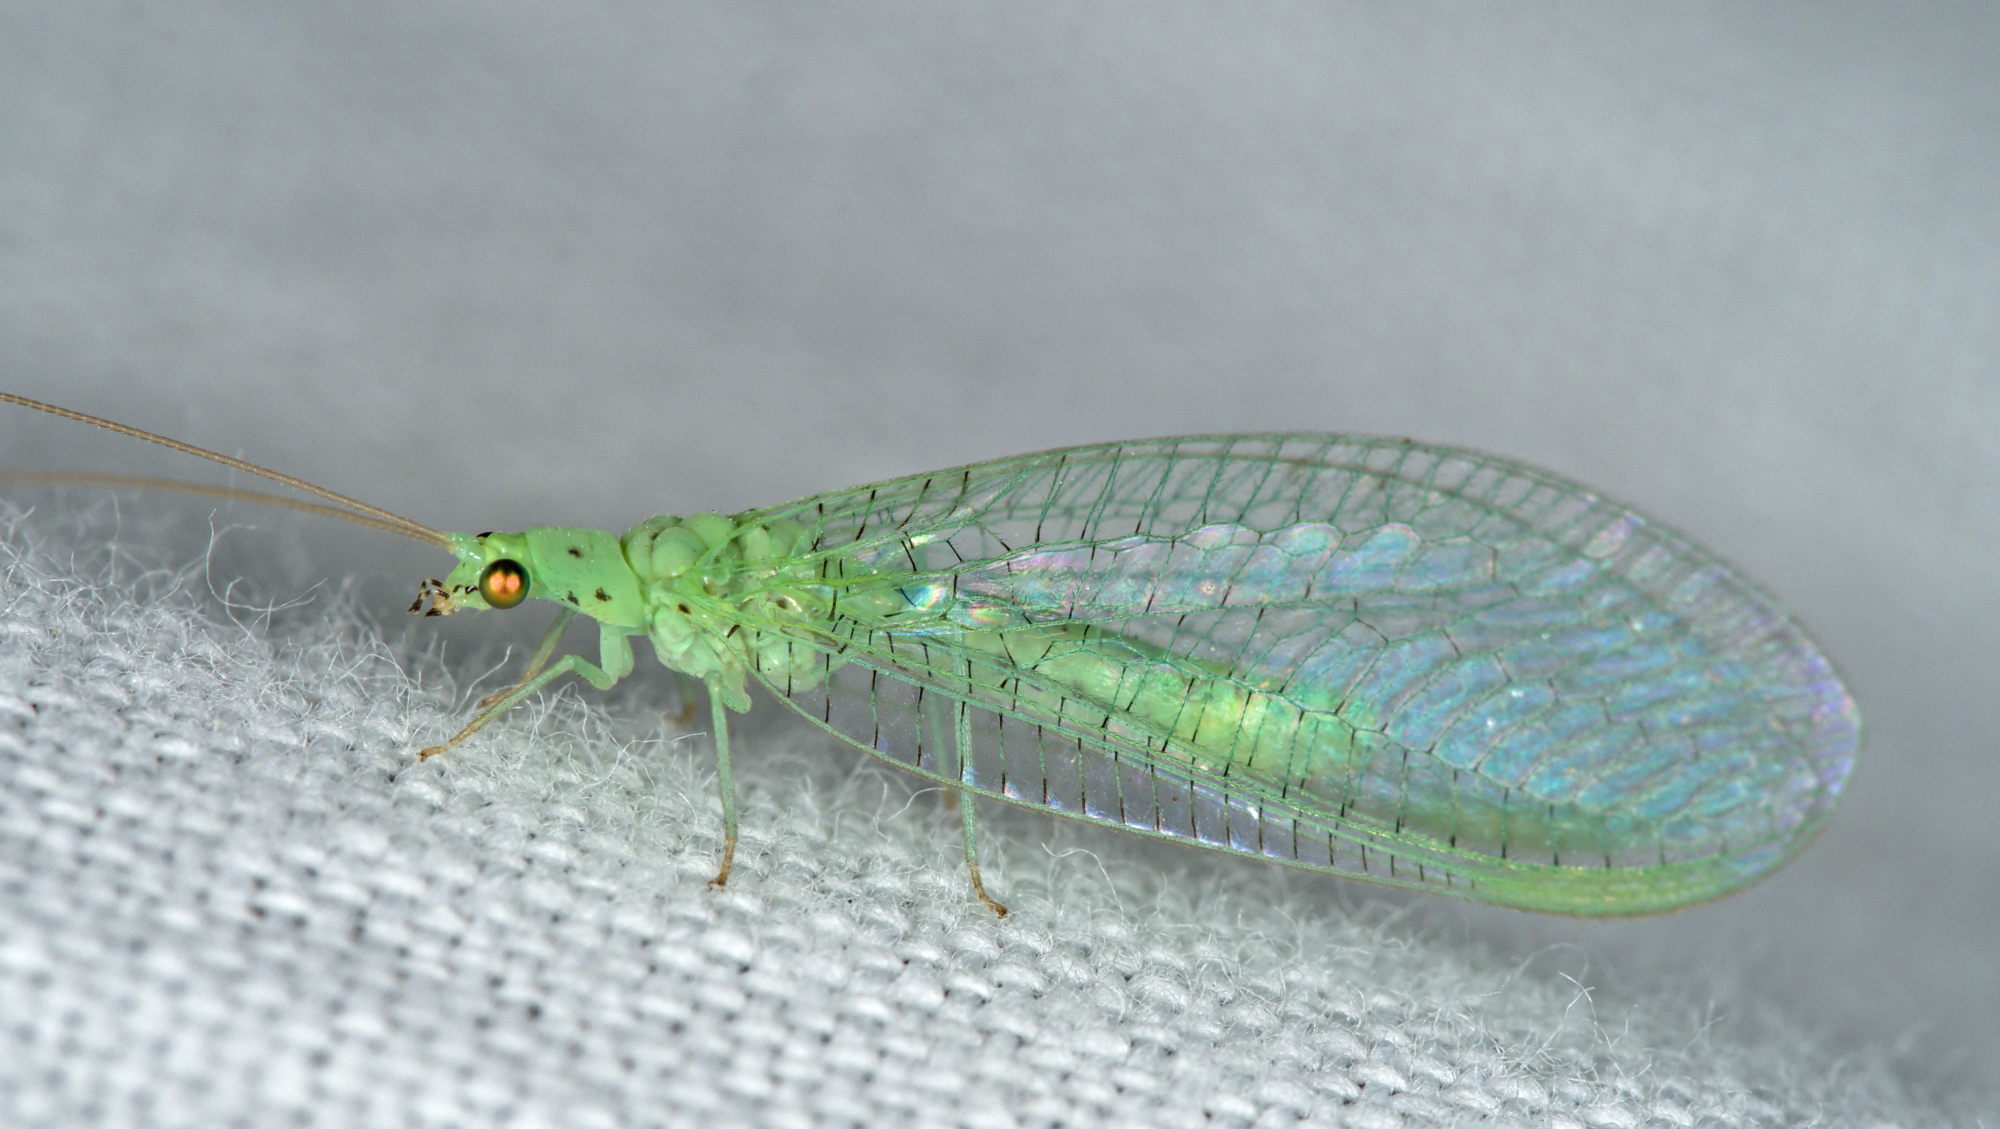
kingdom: Animalia
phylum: Arthropoda
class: Insecta
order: Neuroptera
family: Chrysopidae
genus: Pseudomallada
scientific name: Pseudomallada prasinus
